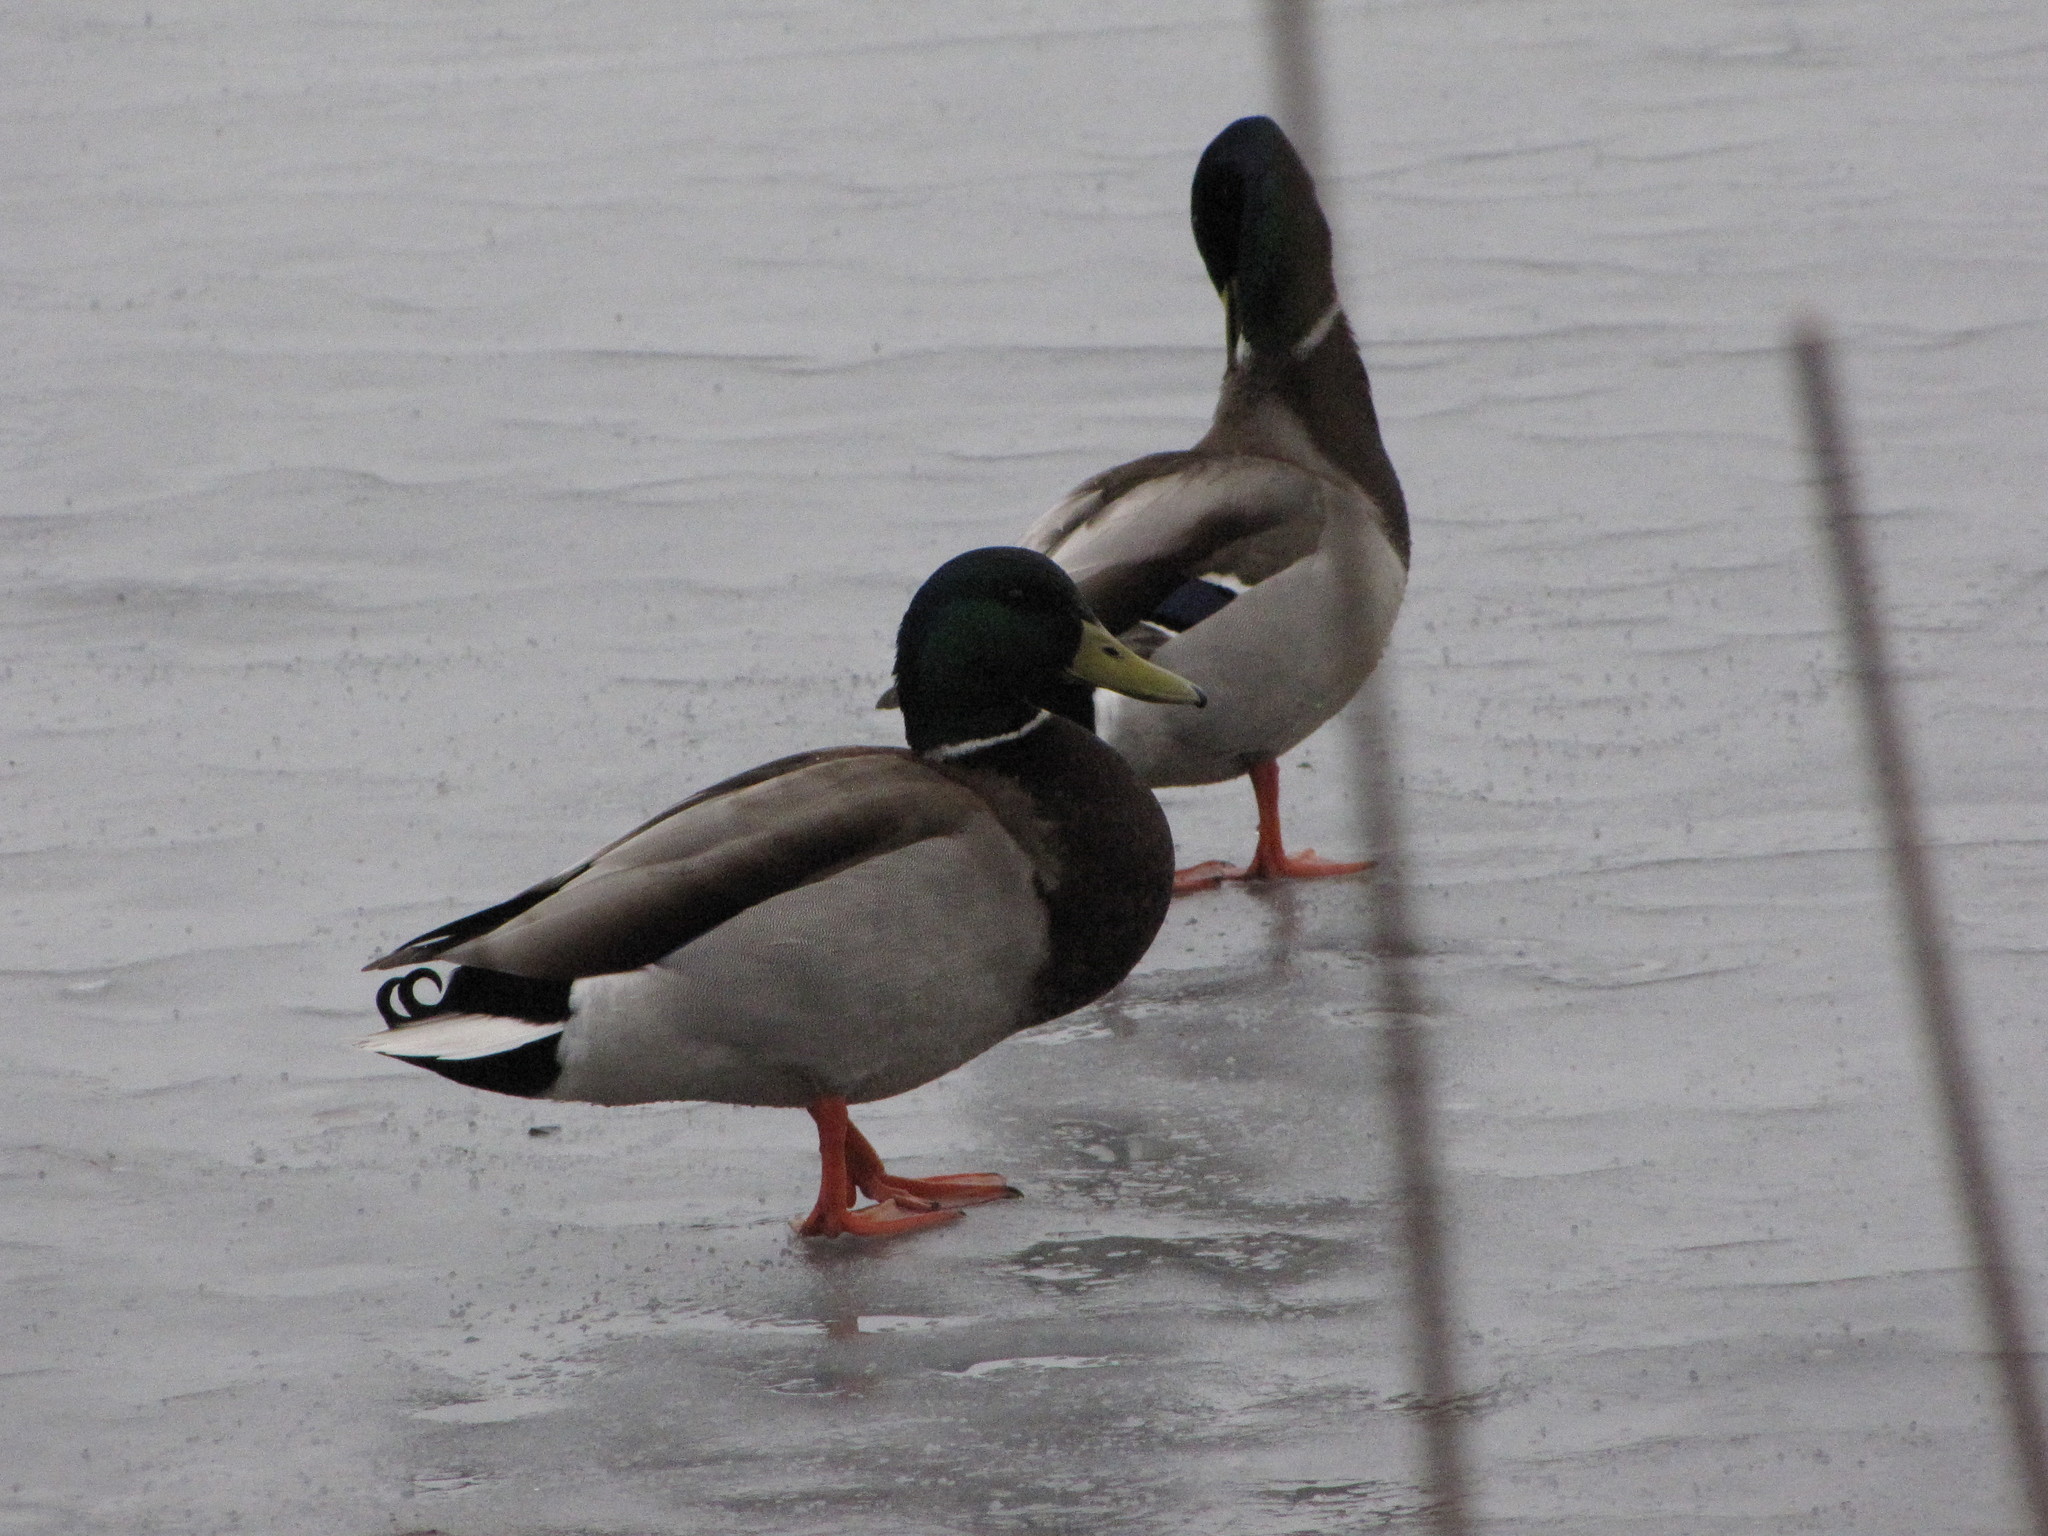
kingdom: Animalia
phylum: Chordata
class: Aves
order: Anseriformes
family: Anatidae
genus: Anas
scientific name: Anas platyrhynchos
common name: Mallard
